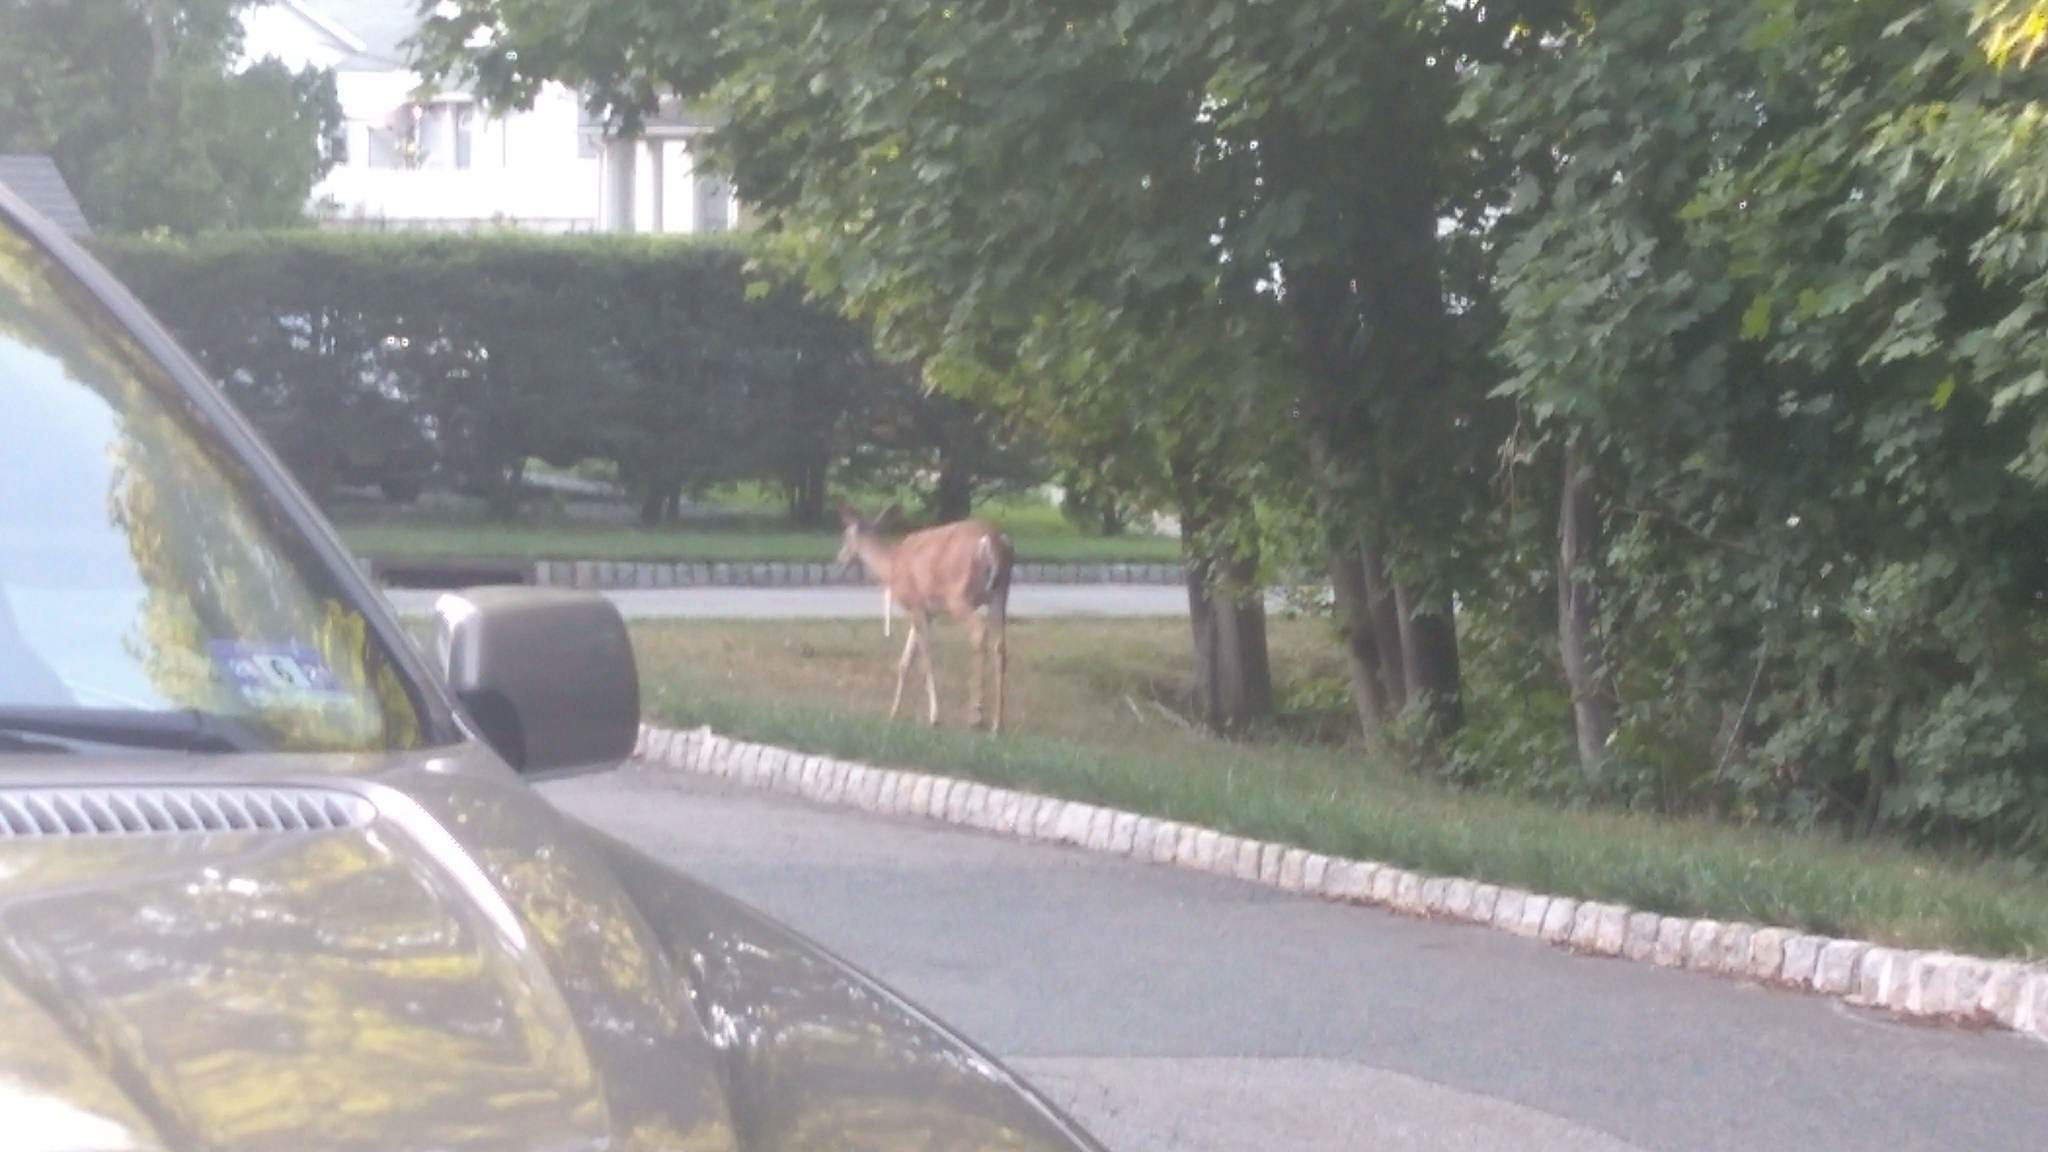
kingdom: Animalia
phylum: Chordata
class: Mammalia
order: Artiodactyla
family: Cervidae
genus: Odocoileus
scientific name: Odocoileus virginianus
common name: White-tailed deer
